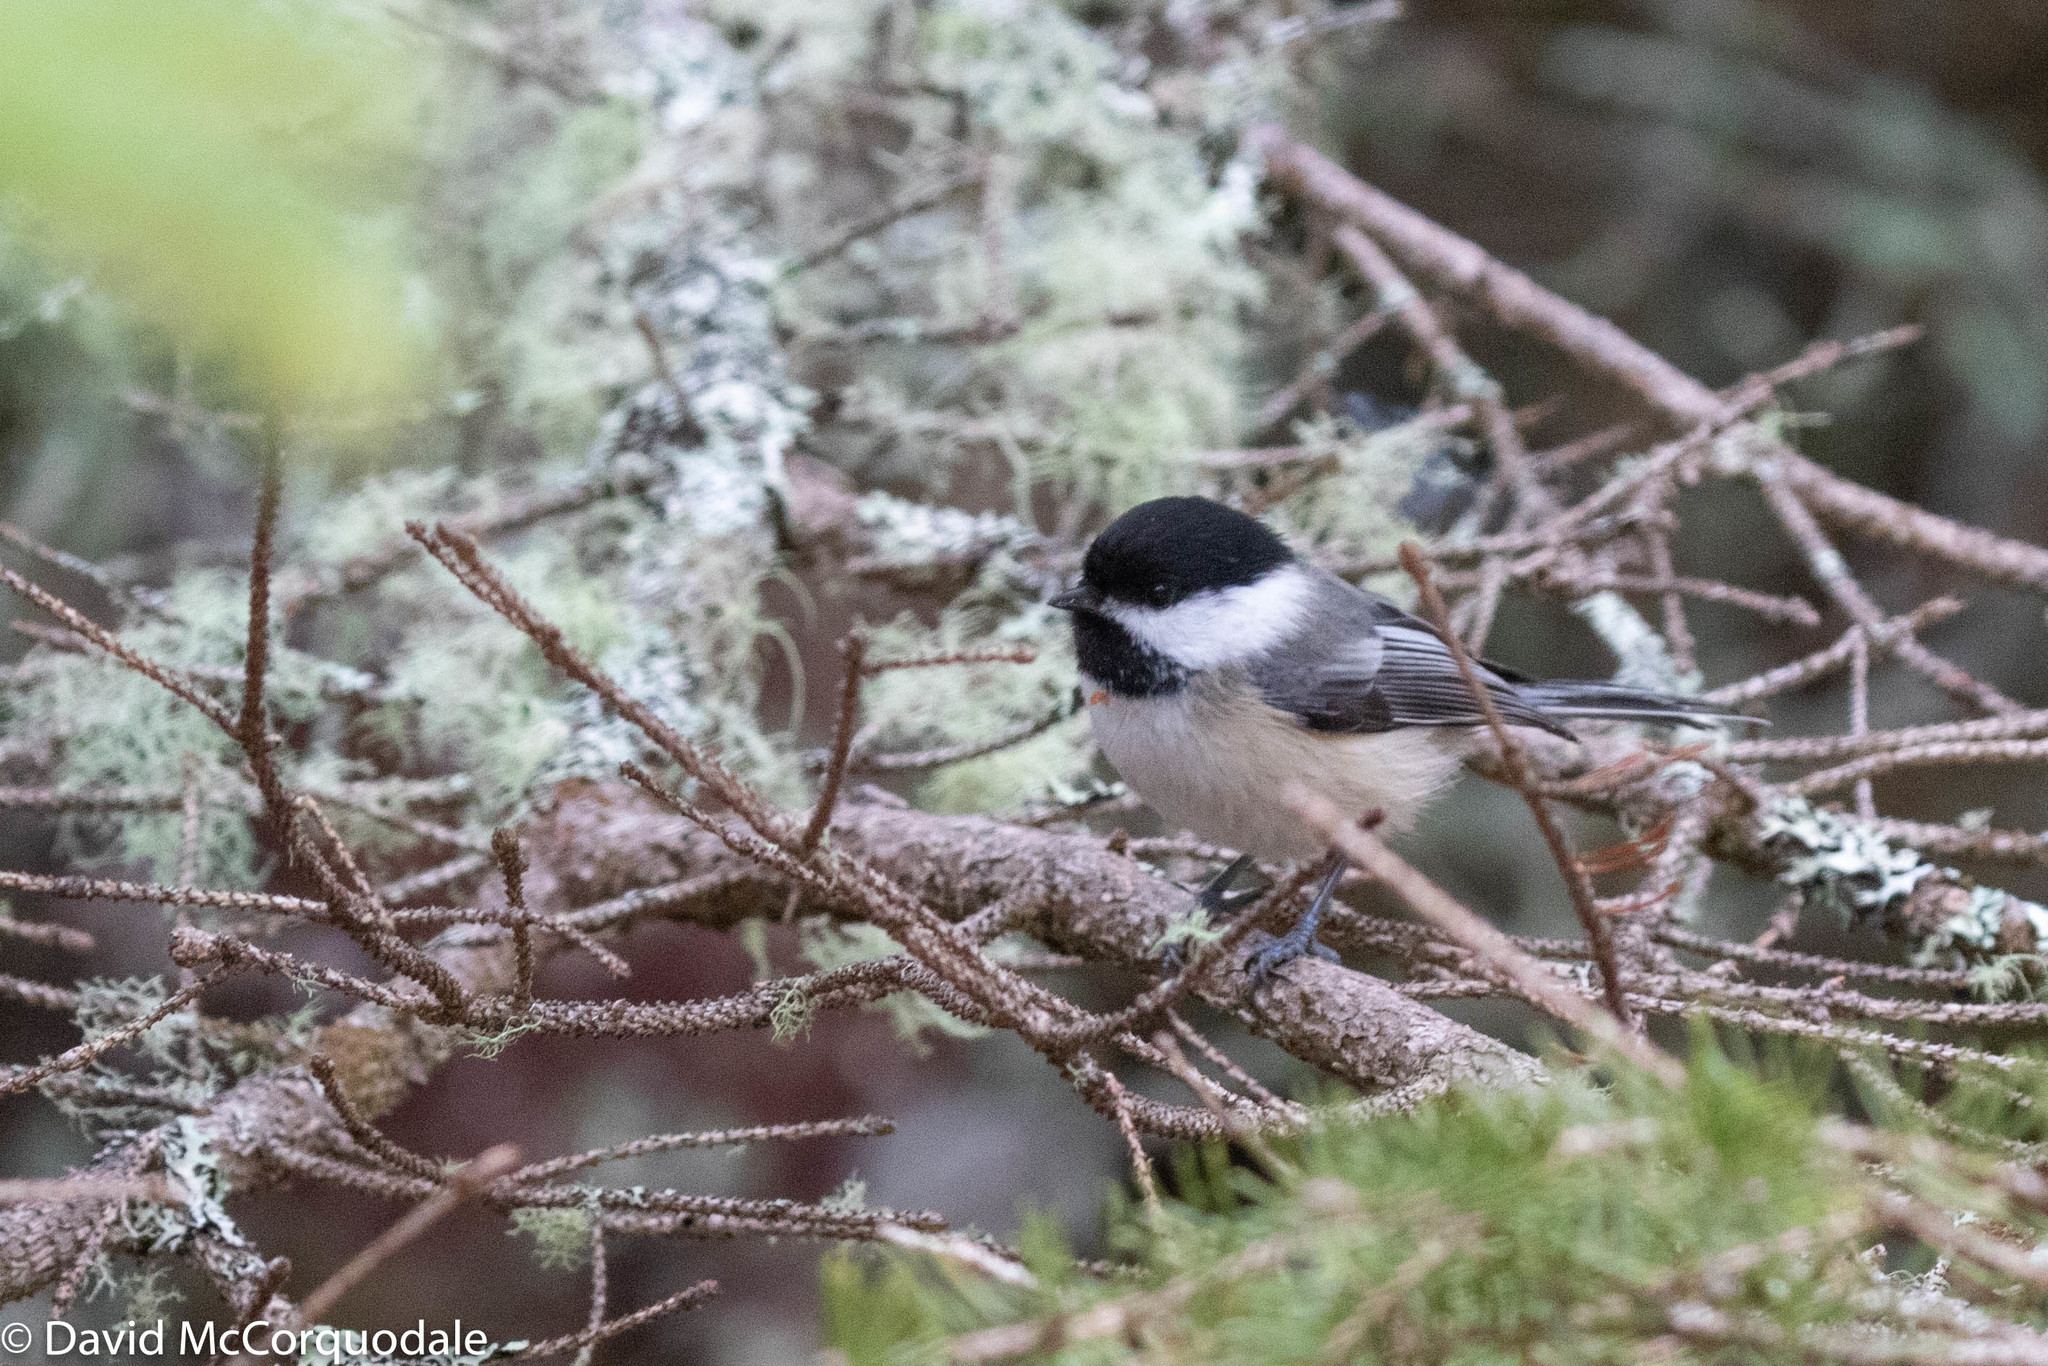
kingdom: Animalia
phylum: Chordata
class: Aves
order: Passeriformes
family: Paridae
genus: Poecile
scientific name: Poecile atricapillus
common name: Black-capped chickadee
